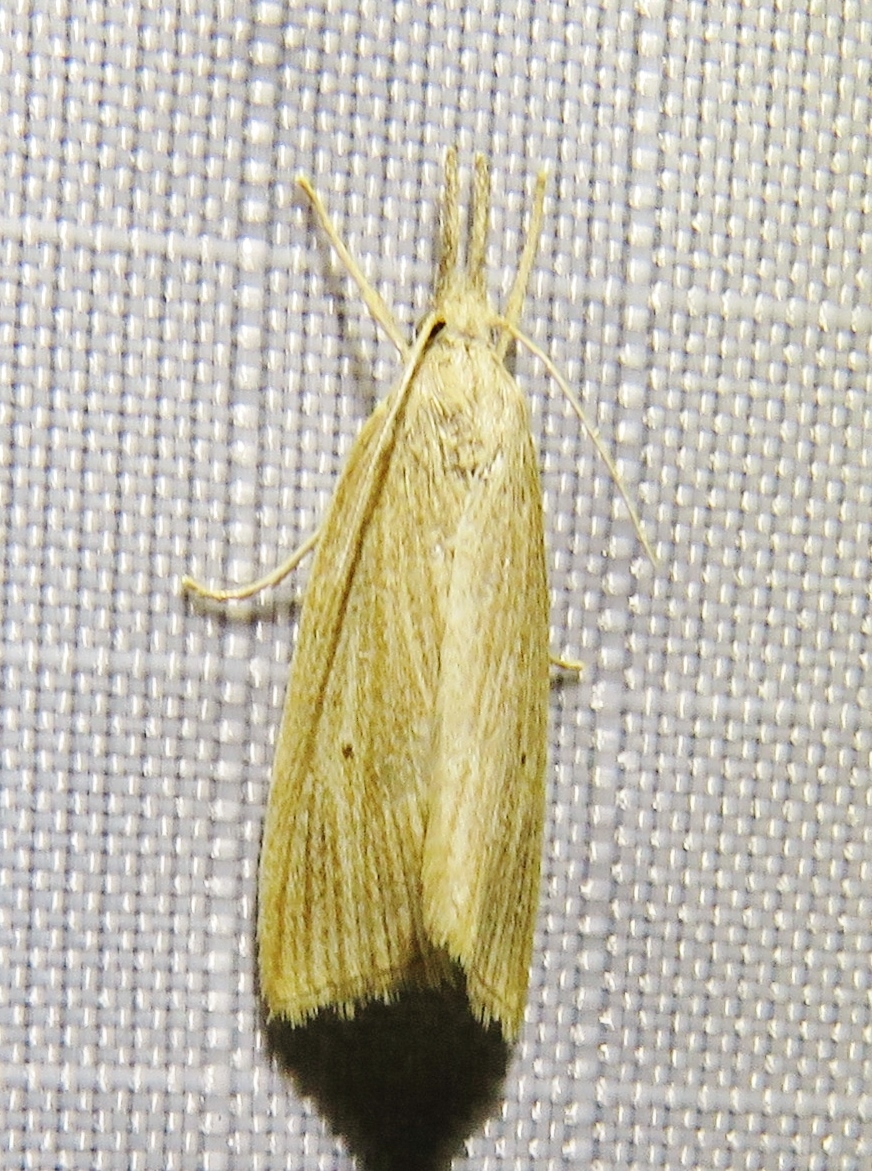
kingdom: Animalia
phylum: Arthropoda
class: Insecta
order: Lepidoptera
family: Crambidae
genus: Diatraea
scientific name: Diatraea evanescens
